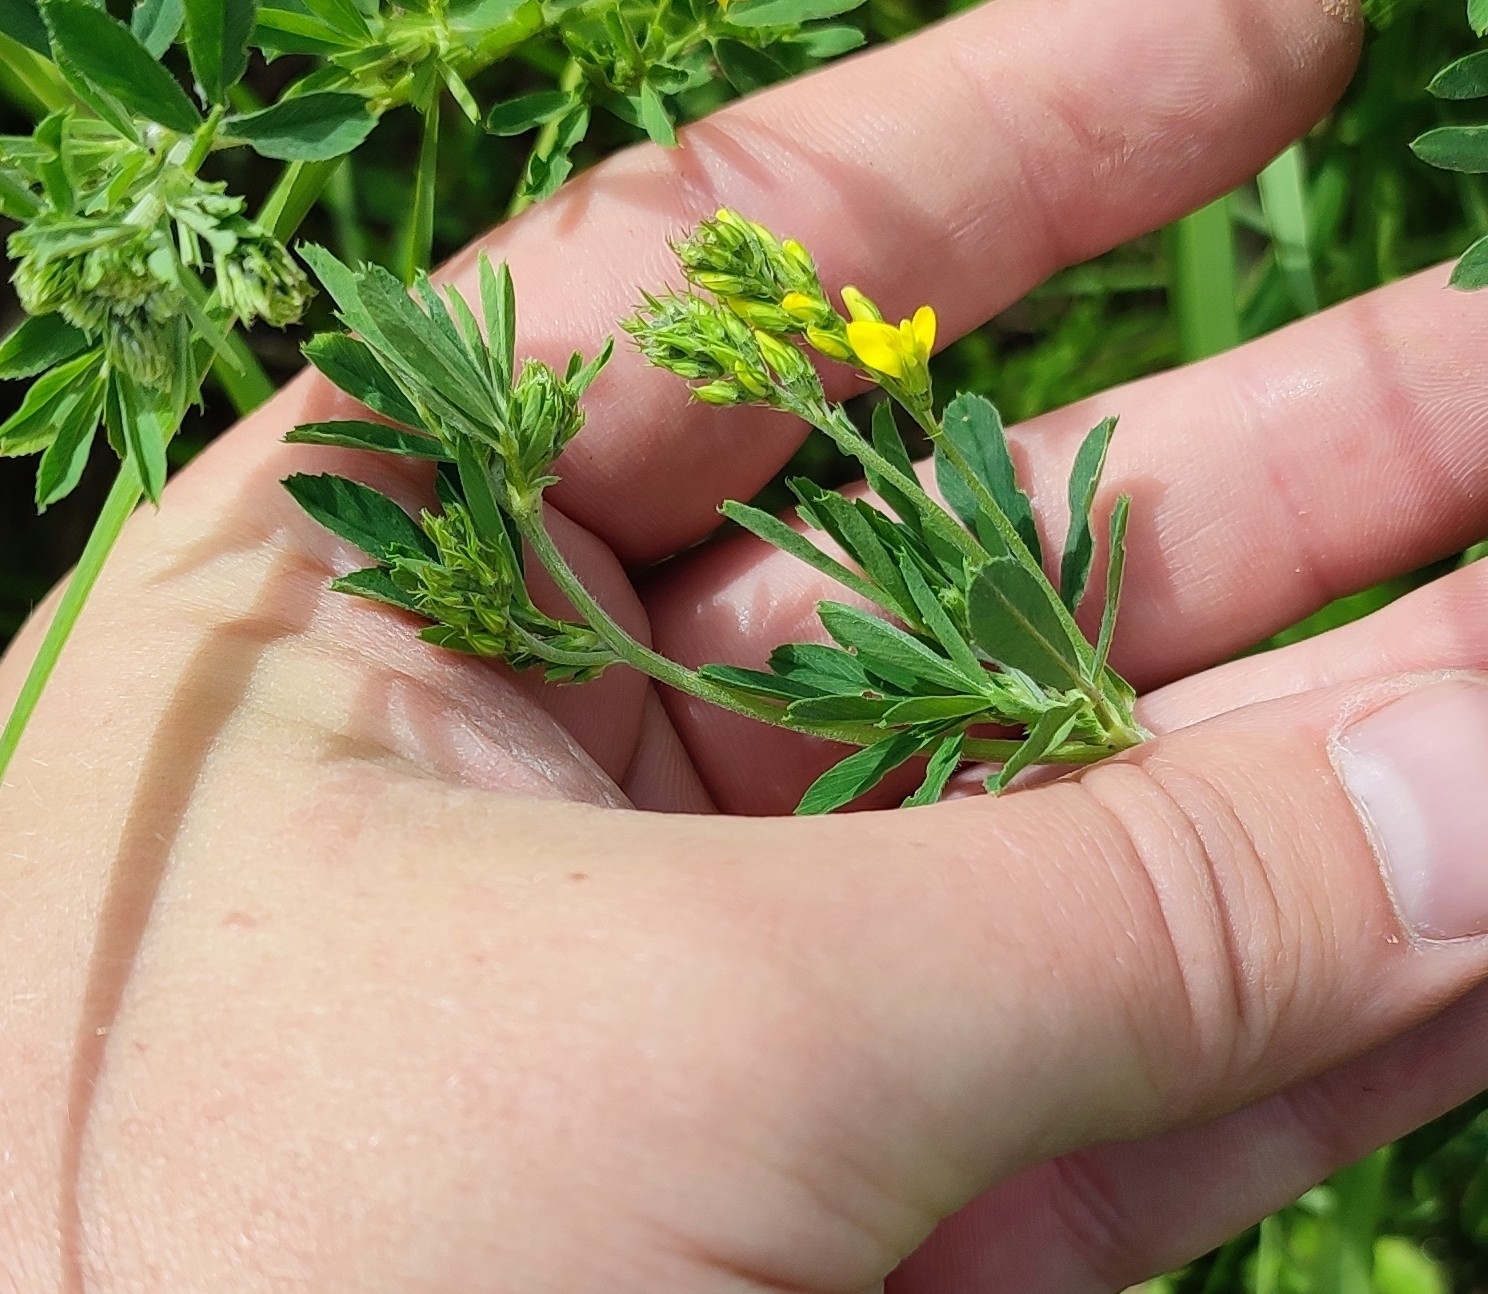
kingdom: Plantae
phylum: Tracheophyta
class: Magnoliopsida
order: Fabales
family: Fabaceae
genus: Medicago
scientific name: Medicago falcata
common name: Sickle medick
